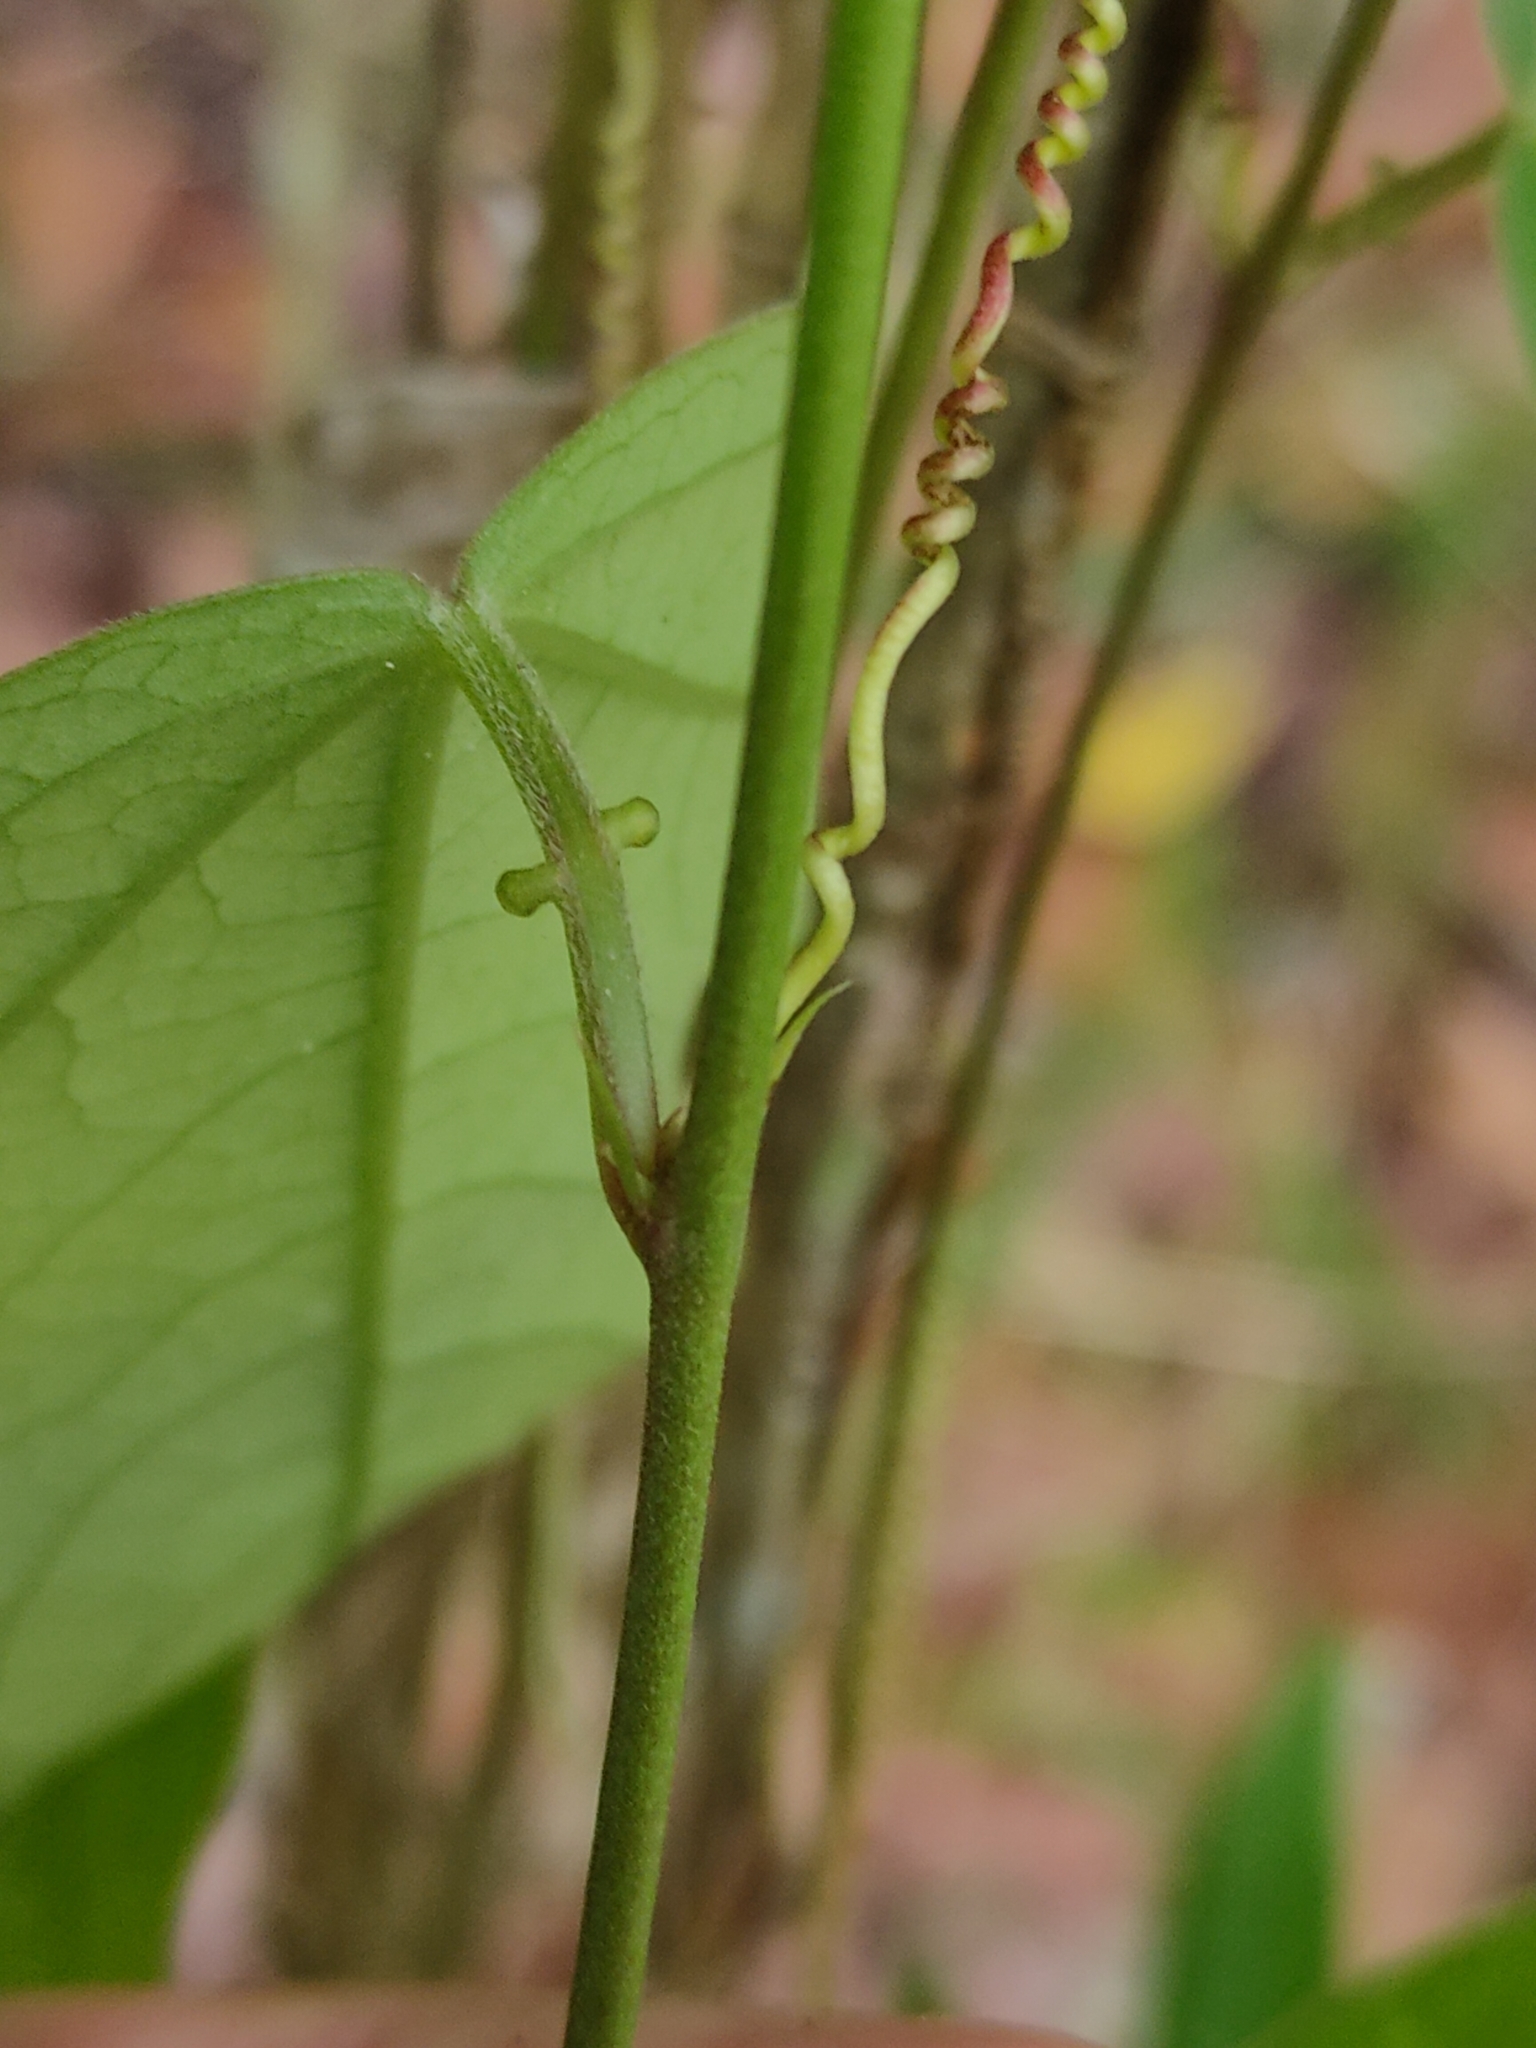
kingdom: Plantae
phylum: Tracheophyta
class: Magnoliopsida
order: Malpighiales
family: Passifloraceae
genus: Passiflora
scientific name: Passiflora suberosa
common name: Wild passionfruit
